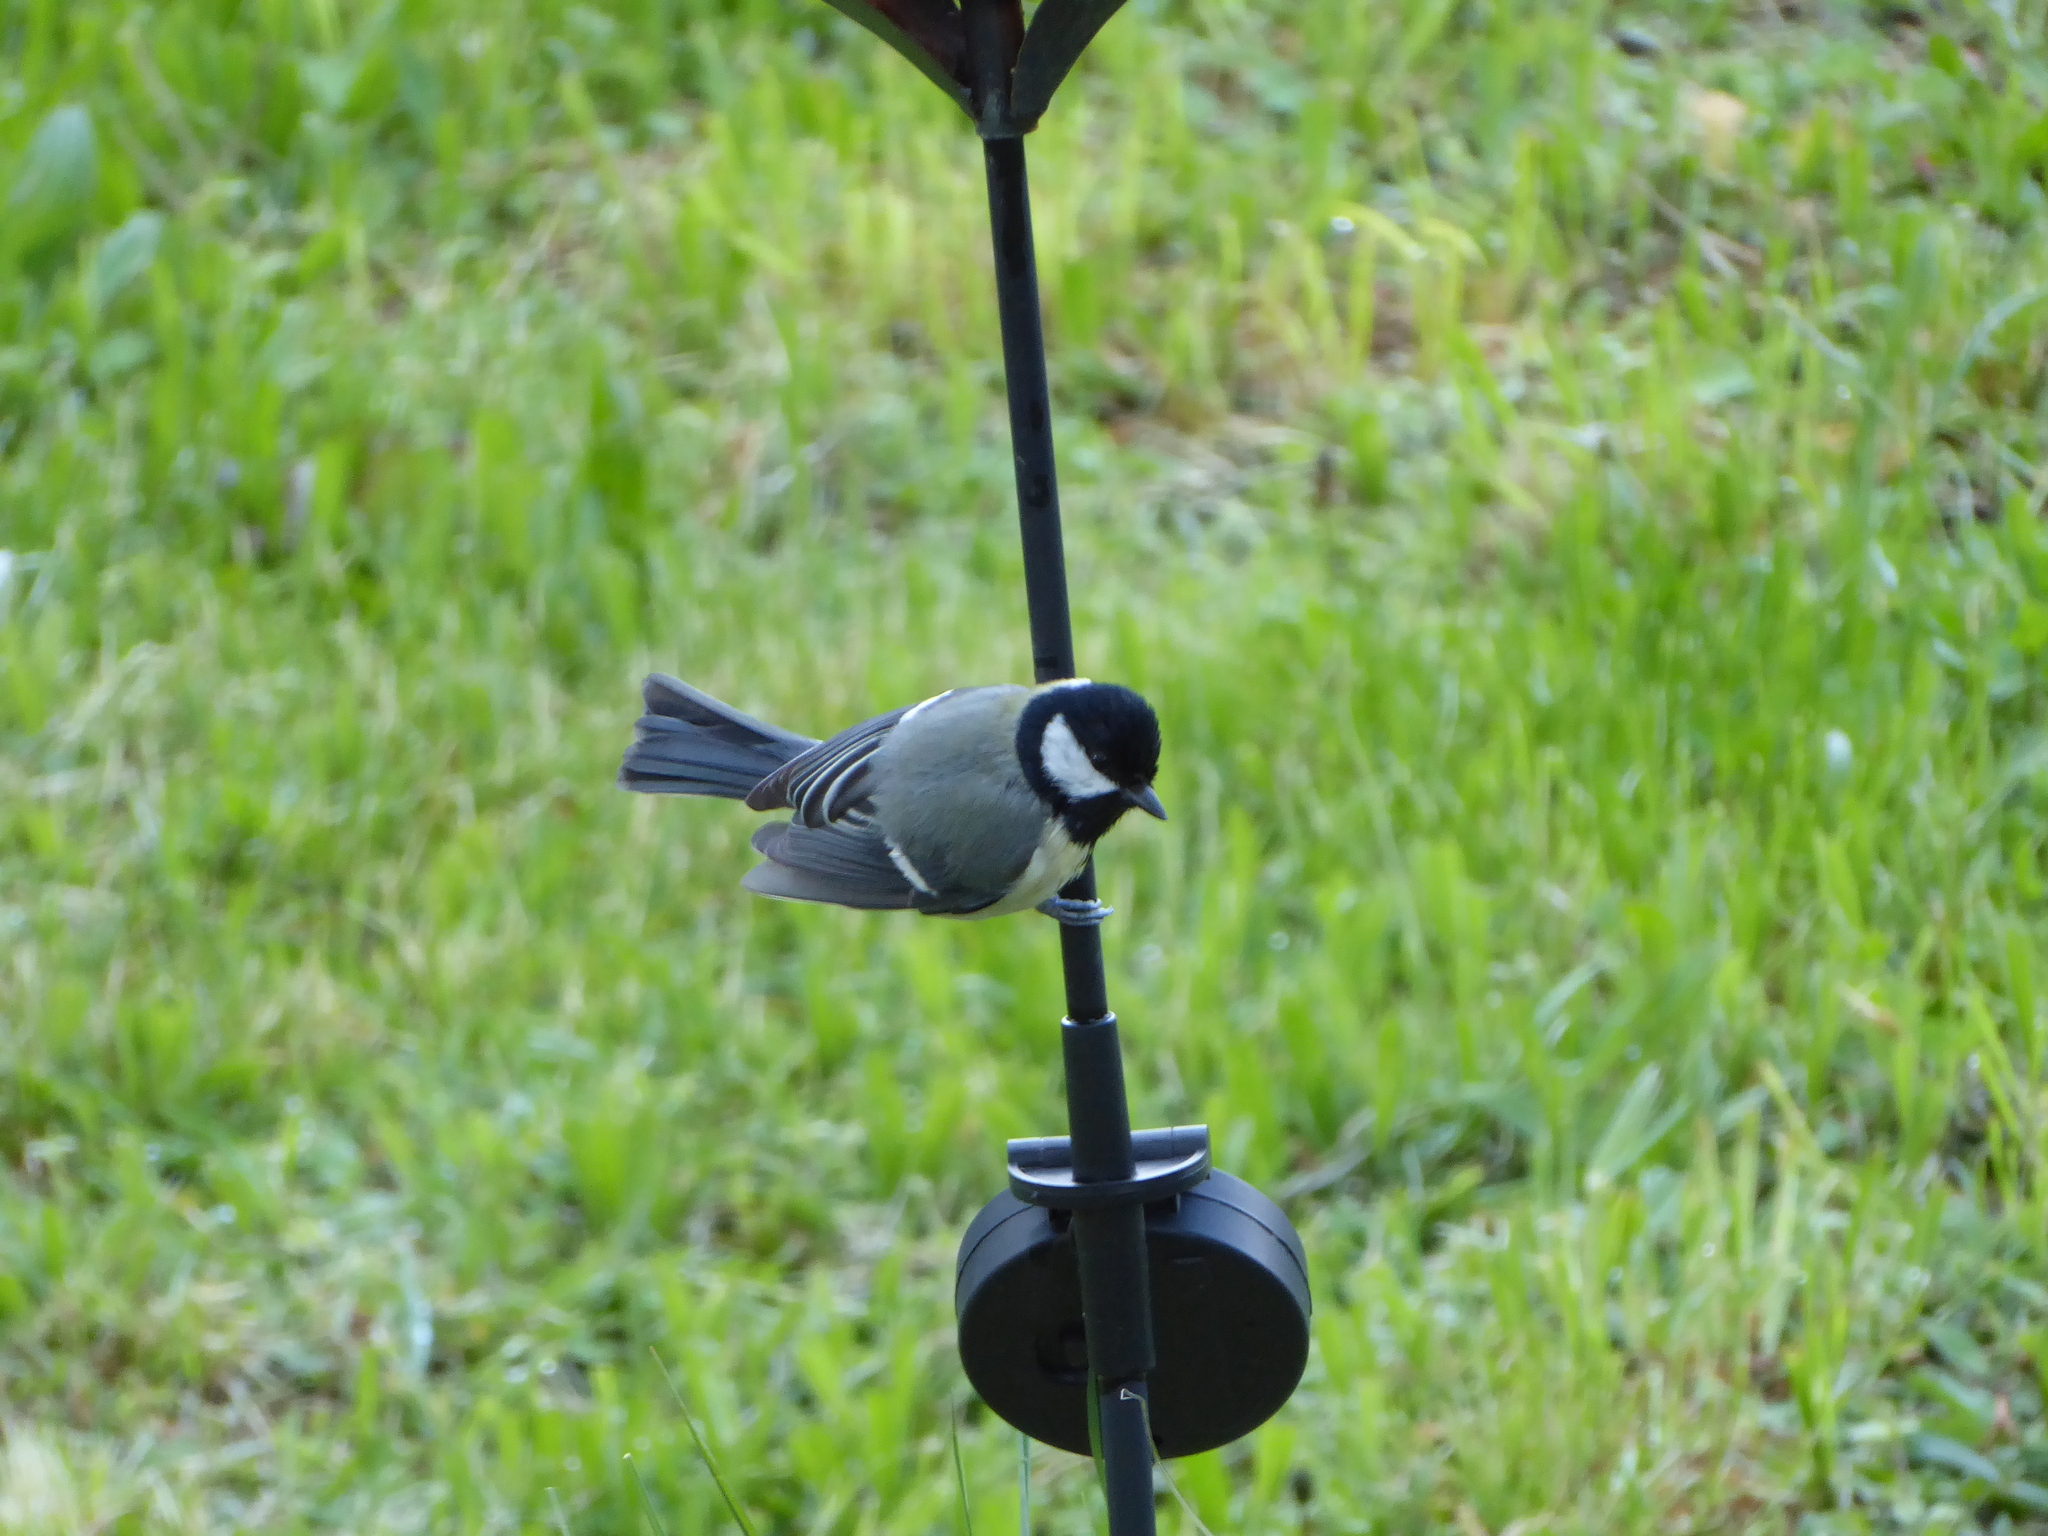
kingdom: Animalia
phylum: Chordata
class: Aves
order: Passeriformes
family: Paridae
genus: Parus
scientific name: Parus major
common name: Great tit
